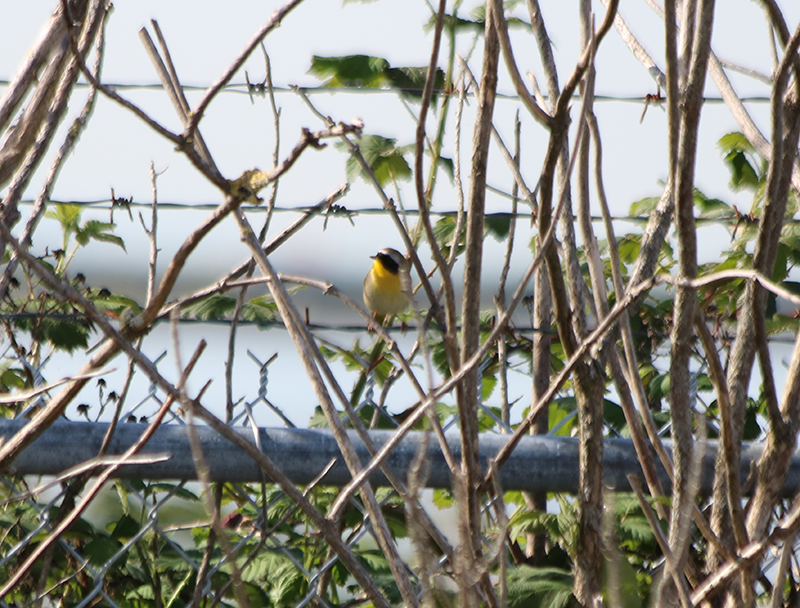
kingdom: Animalia
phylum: Chordata
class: Aves
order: Passeriformes
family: Parulidae
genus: Geothlypis
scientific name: Geothlypis trichas
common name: Common yellowthroat
